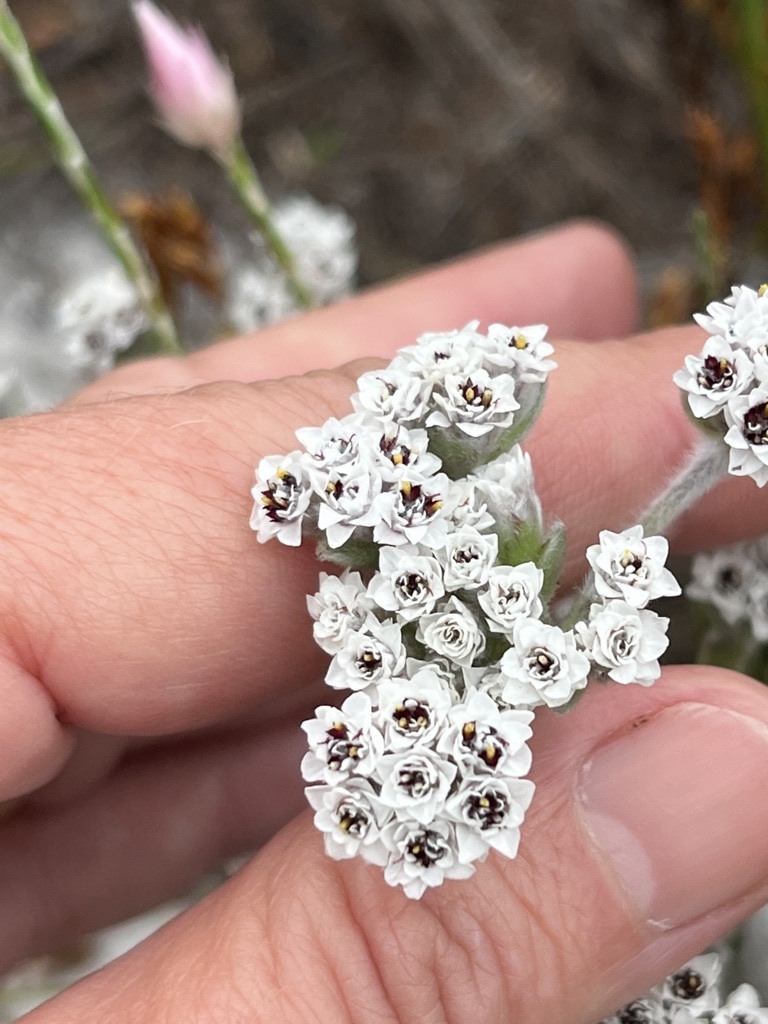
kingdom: Plantae
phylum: Tracheophyta
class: Magnoliopsida
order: Asterales
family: Asteraceae
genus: Petalacte
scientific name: Petalacte coronata
